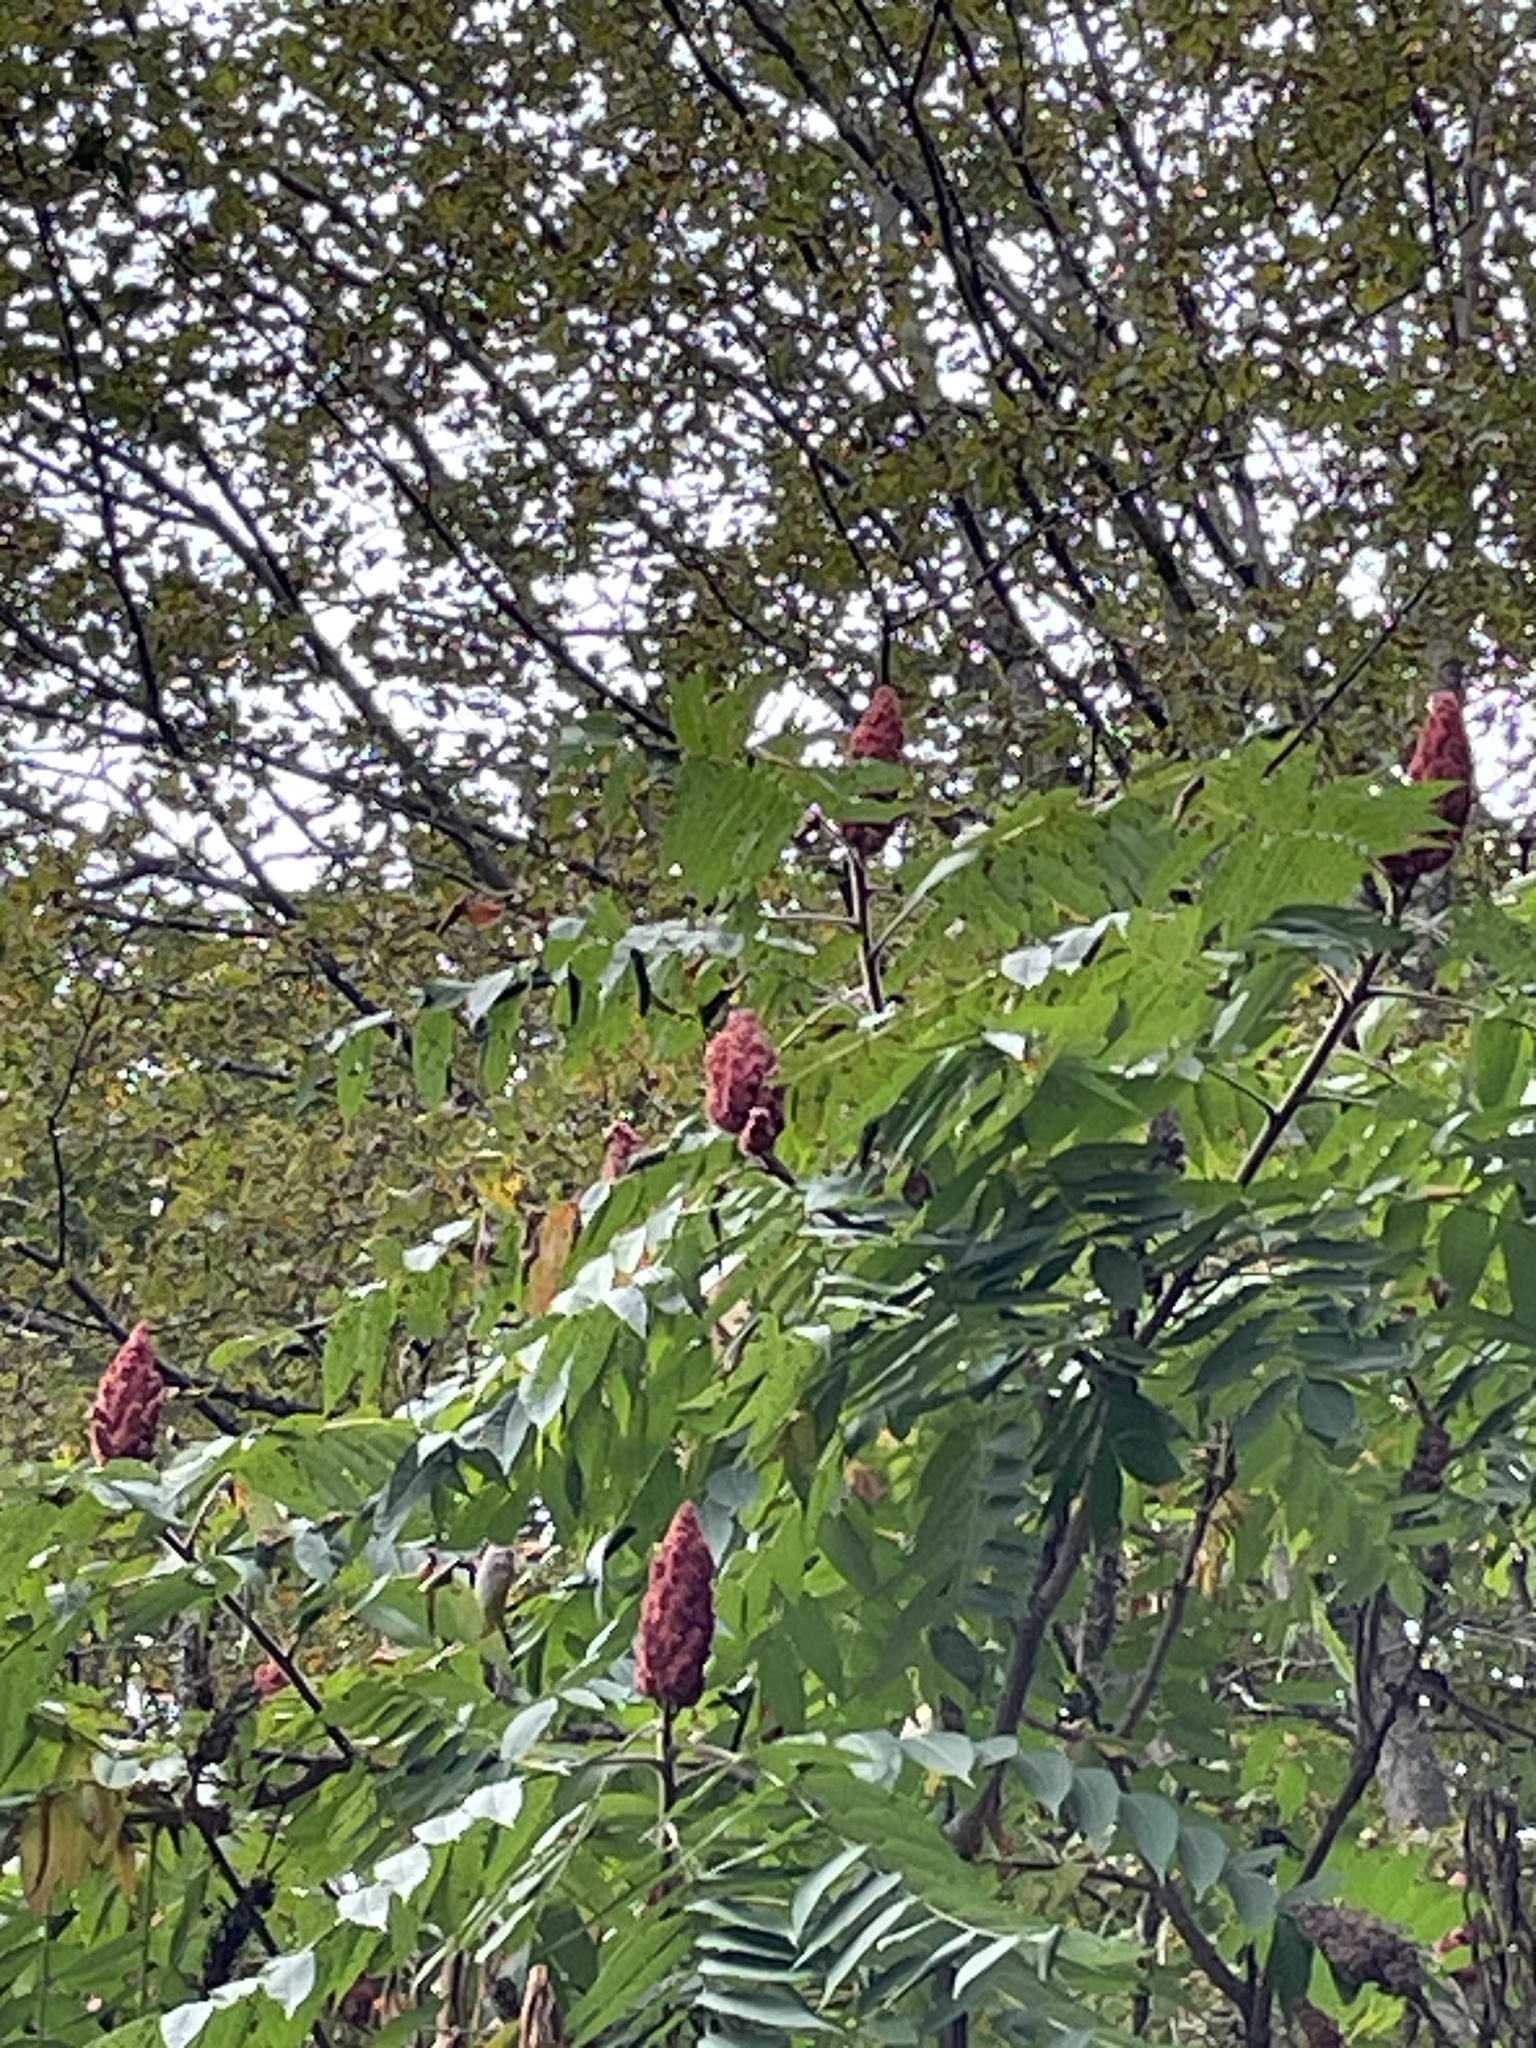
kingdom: Plantae
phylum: Tracheophyta
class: Magnoliopsida
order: Sapindales
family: Anacardiaceae
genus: Rhus
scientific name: Rhus typhina
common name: Staghorn sumac
